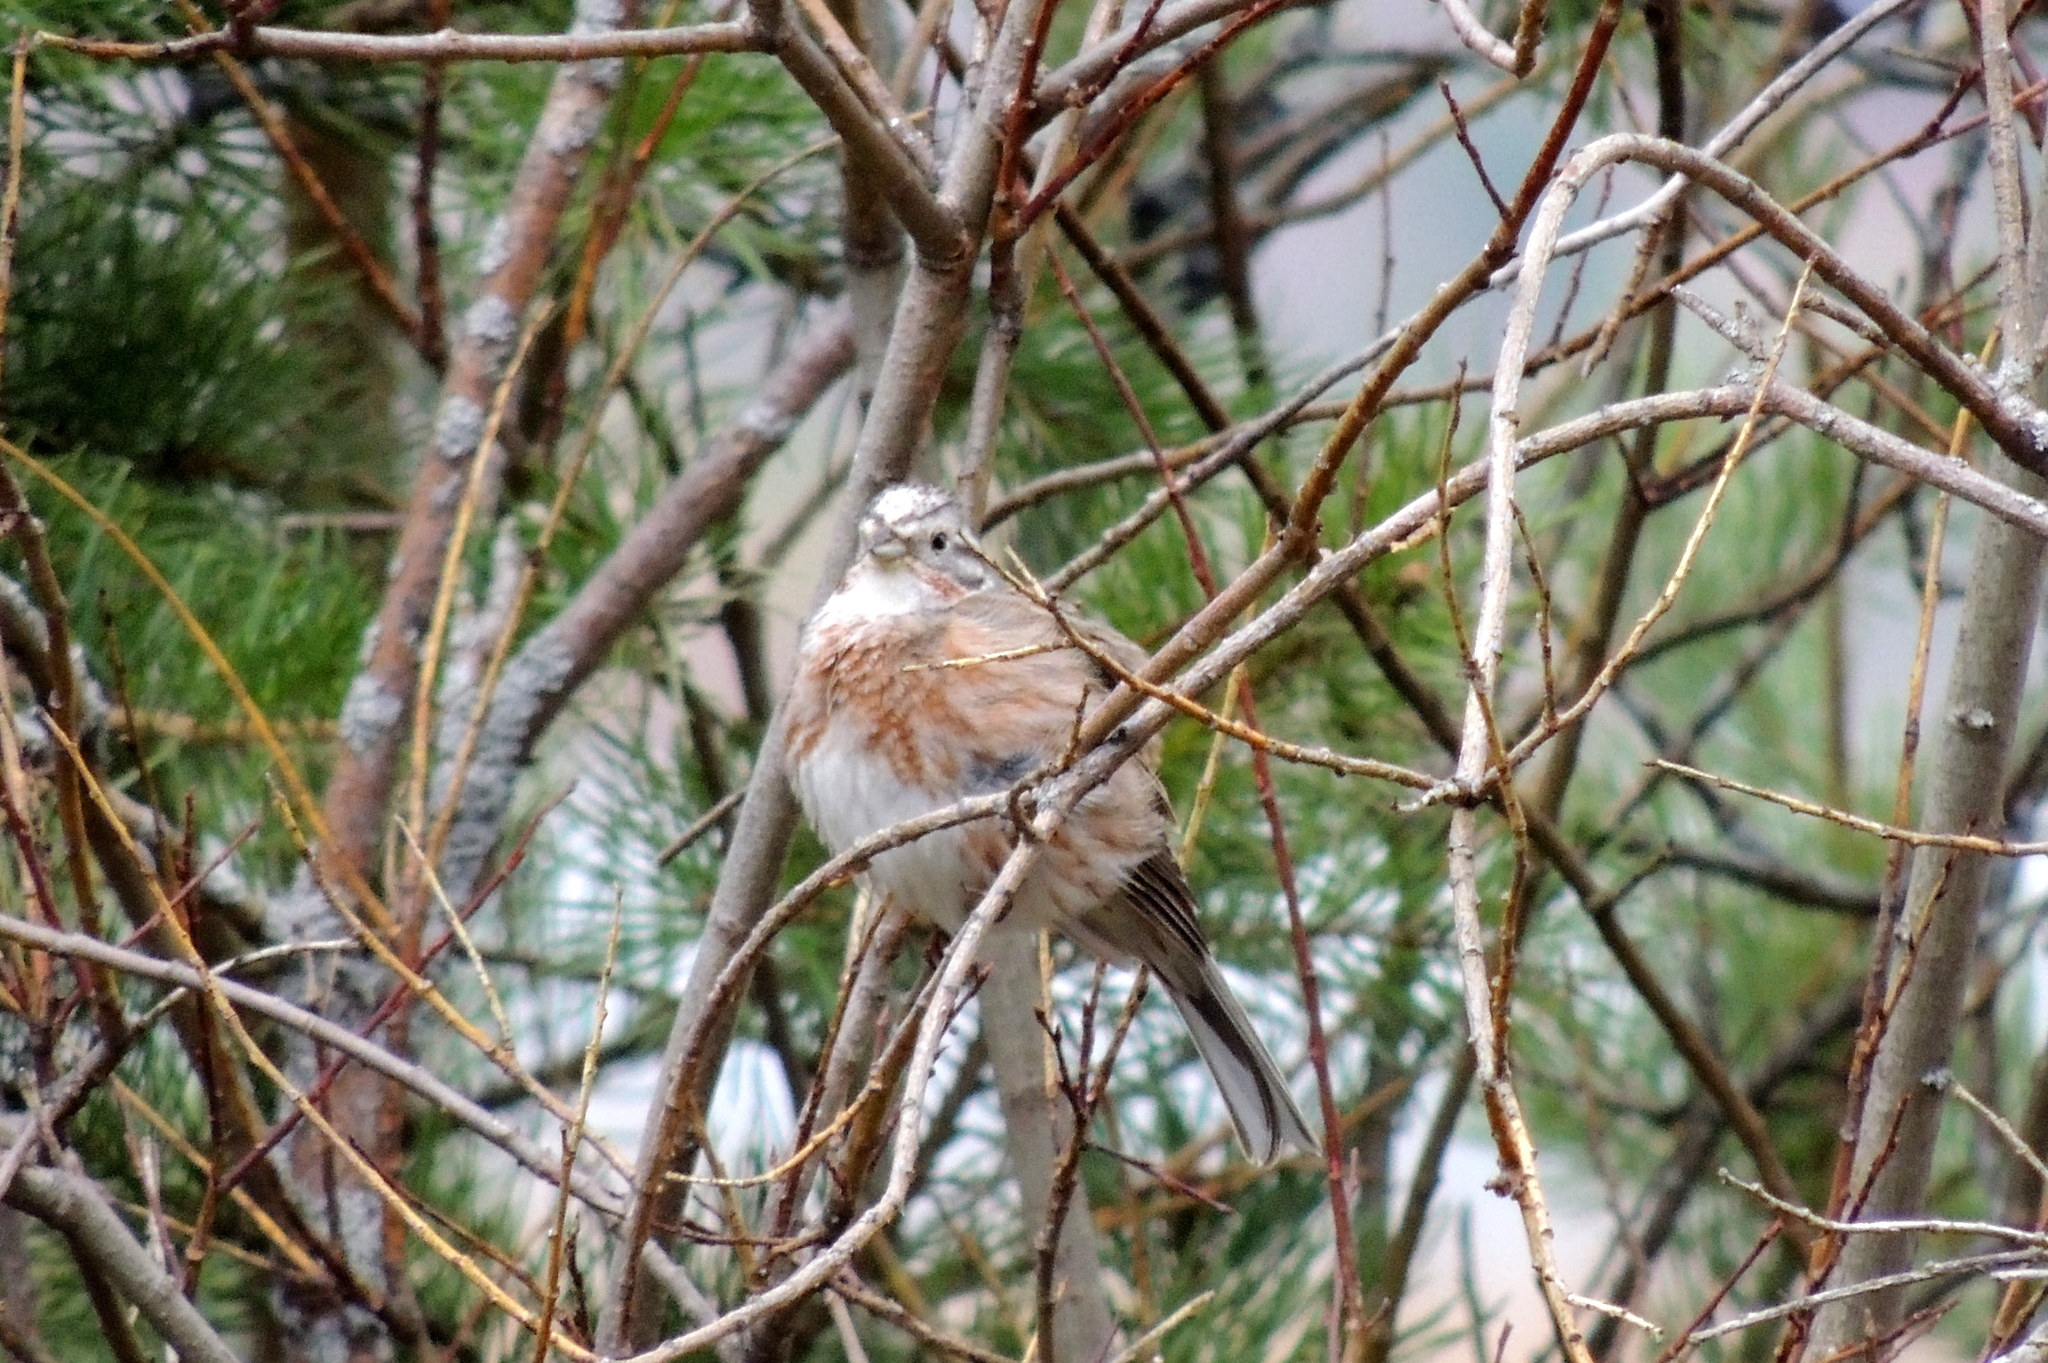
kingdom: Animalia
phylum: Chordata
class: Aves
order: Passeriformes
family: Emberizidae
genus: Emberiza
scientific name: Emberiza
